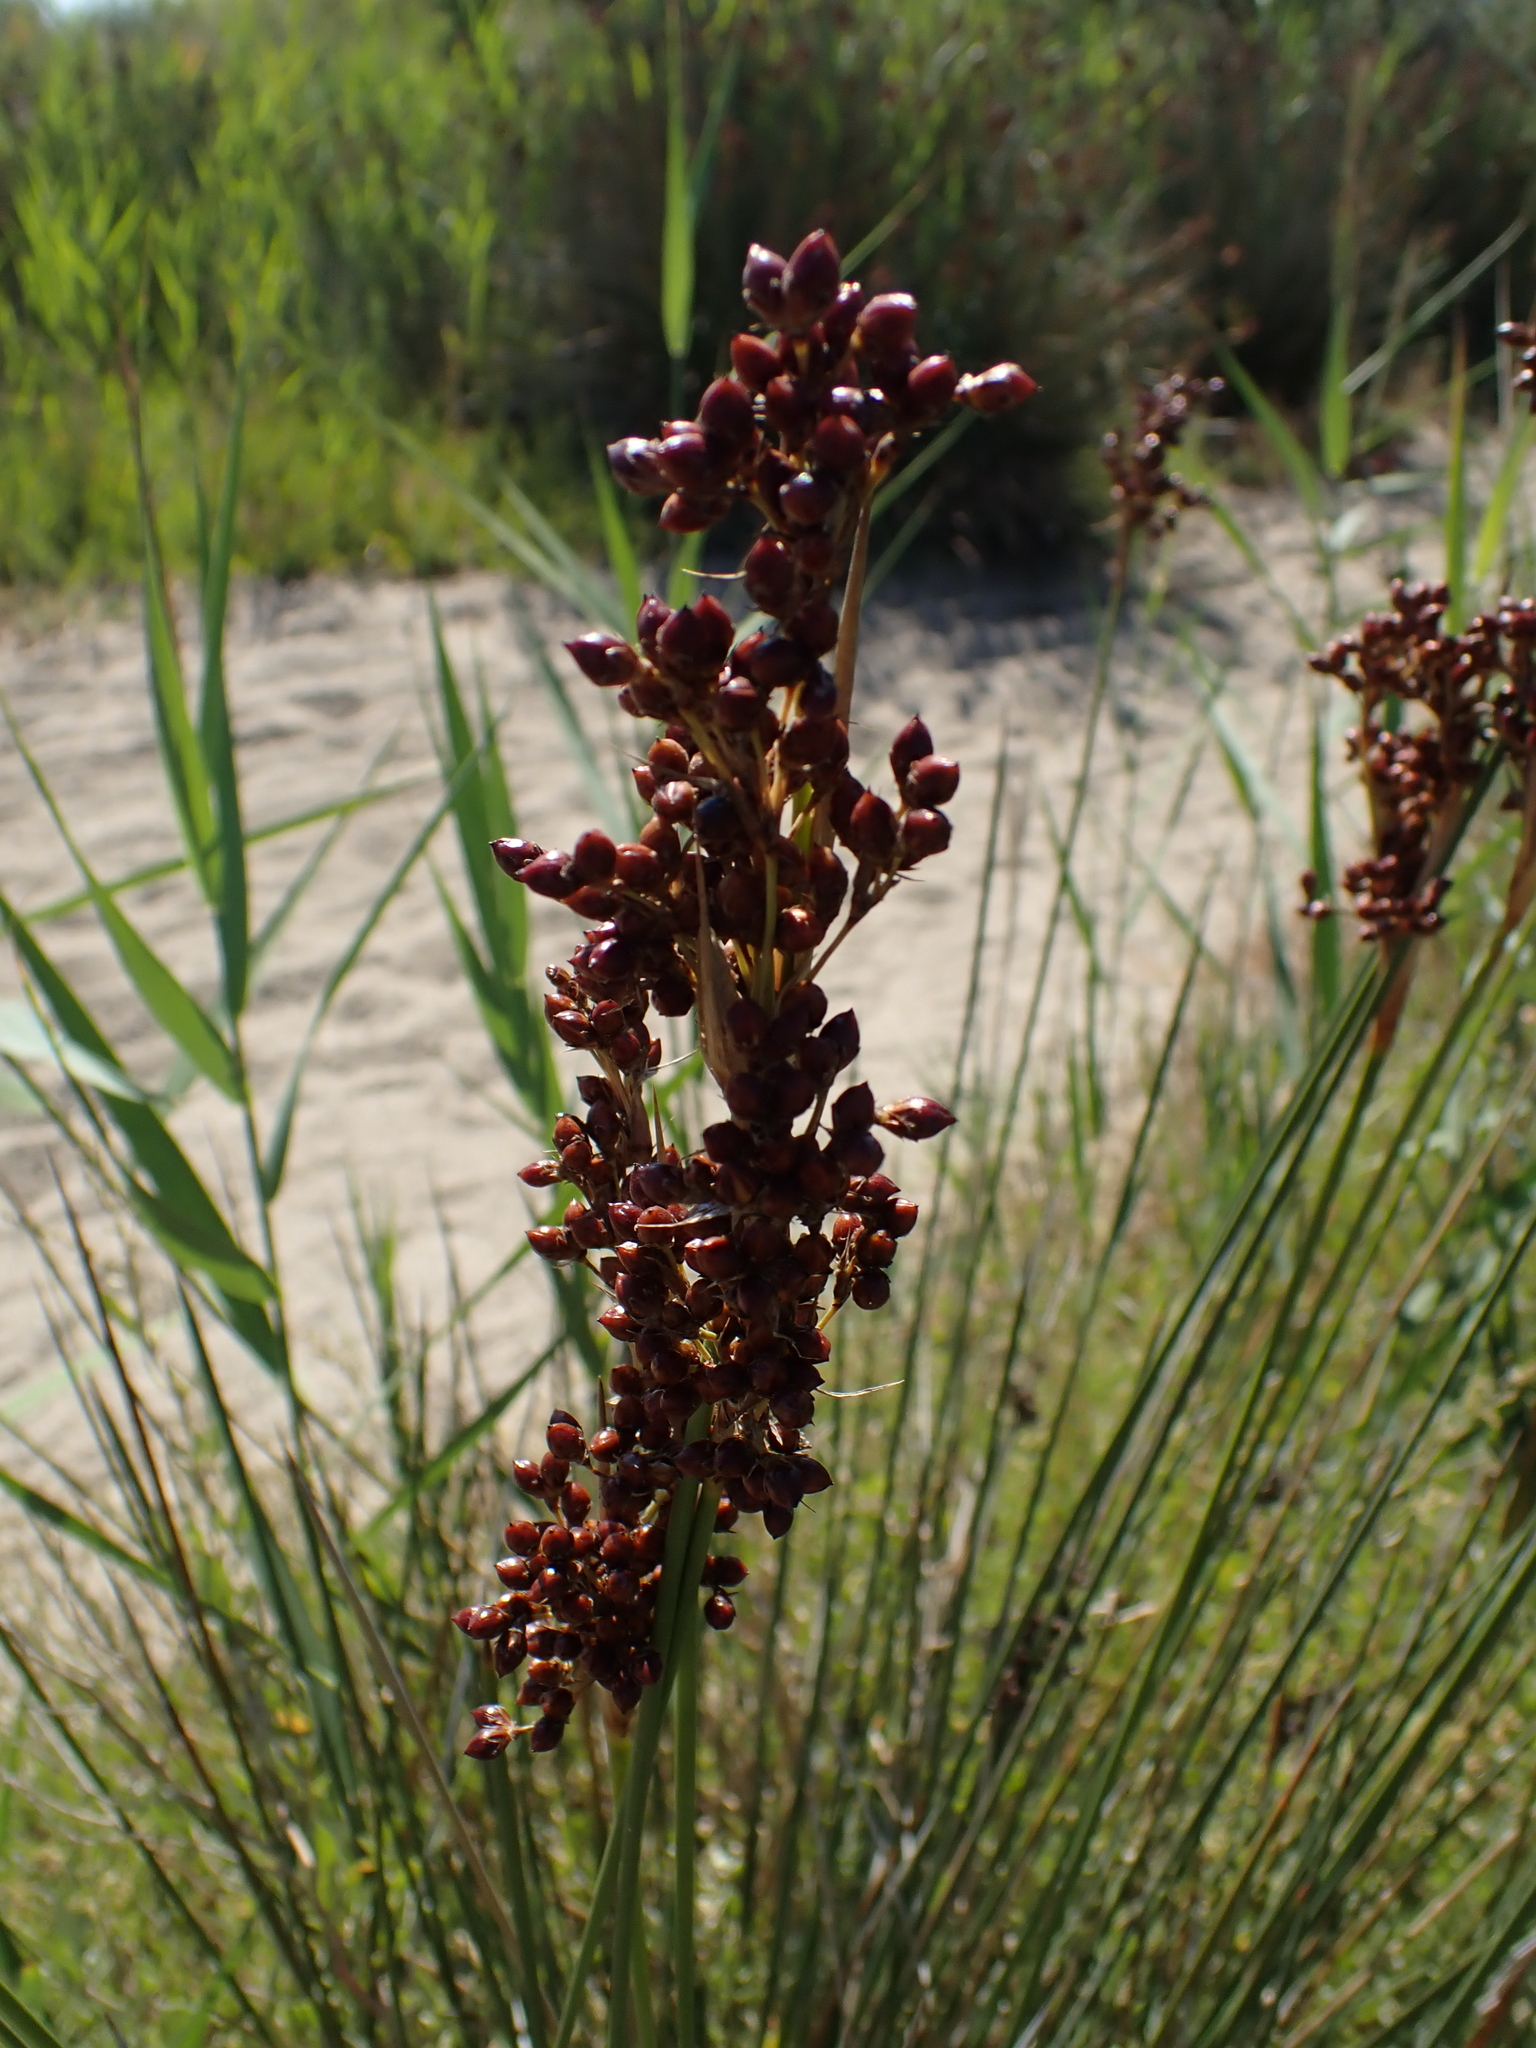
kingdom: Plantae
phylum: Tracheophyta
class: Liliopsida
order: Poales
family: Juncaceae
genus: Juncus
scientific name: Juncus acutus
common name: Sharp rush
